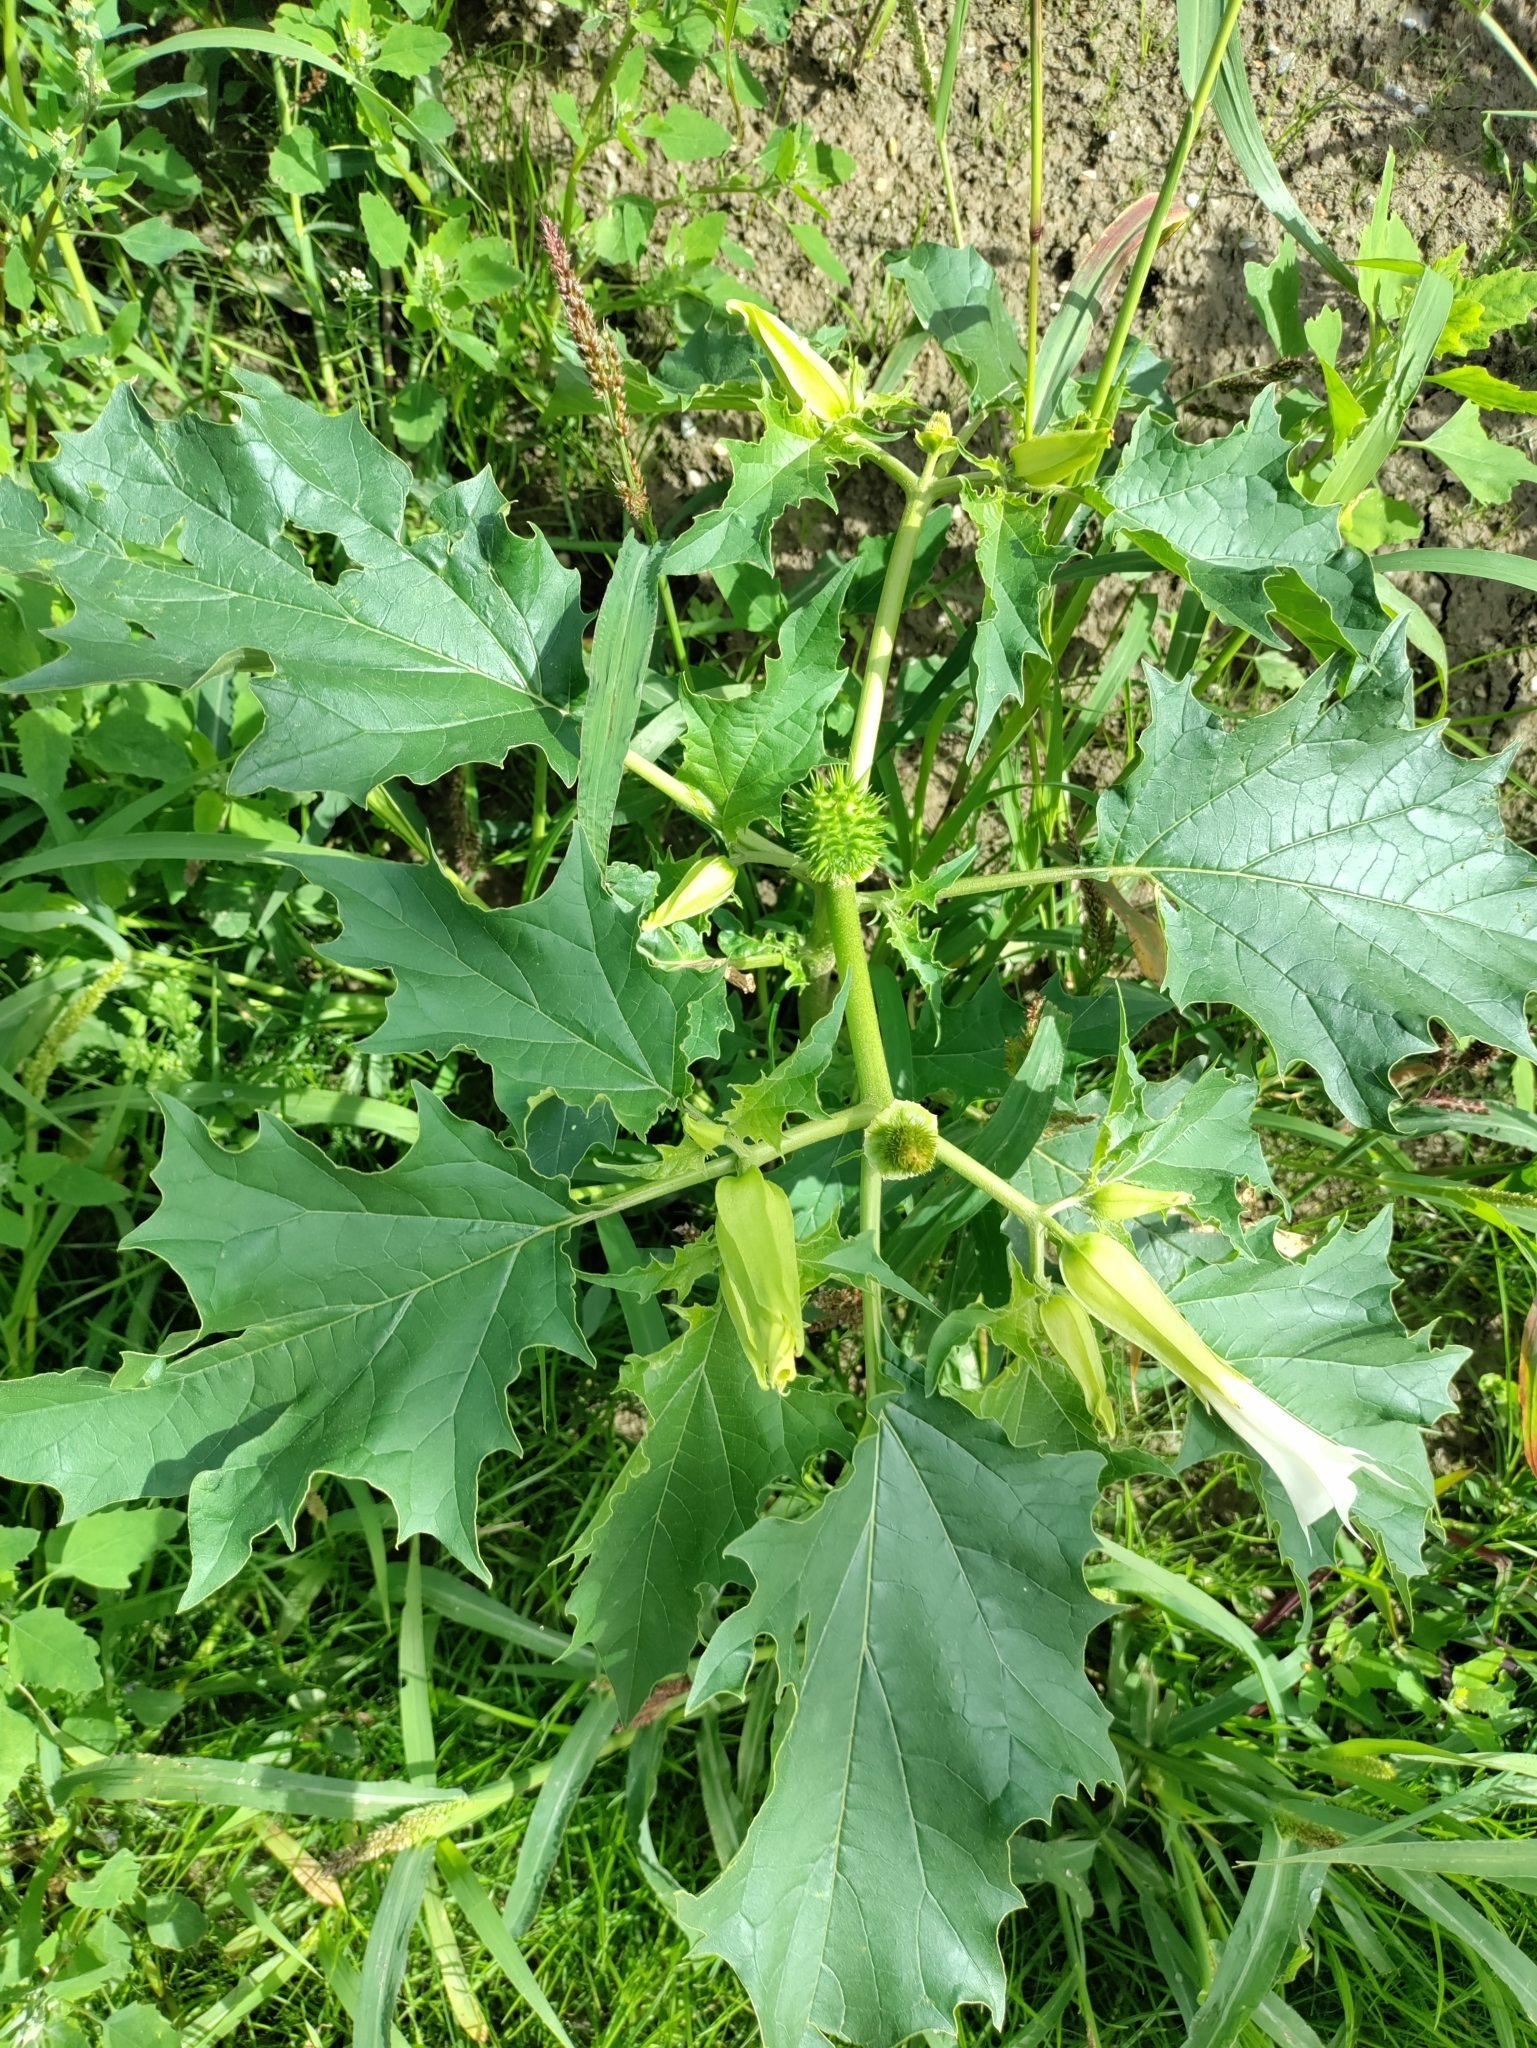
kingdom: Plantae
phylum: Tracheophyta
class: Magnoliopsida
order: Solanales
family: Solanaceae
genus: Datura
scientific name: Datura stramonium
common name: Thorn-apple
